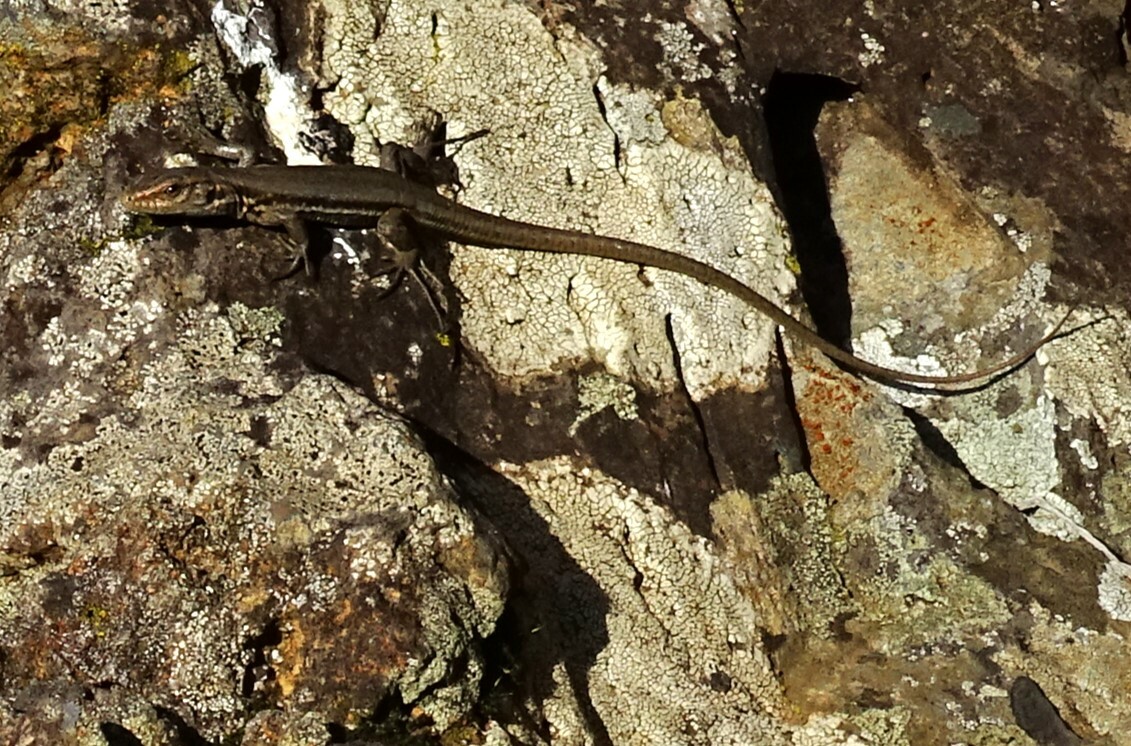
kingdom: Animalia
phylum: Chordata
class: Squamata
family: Lacertidae
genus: Gallotia
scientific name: Gallotia galloti
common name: Gallot's lizard
